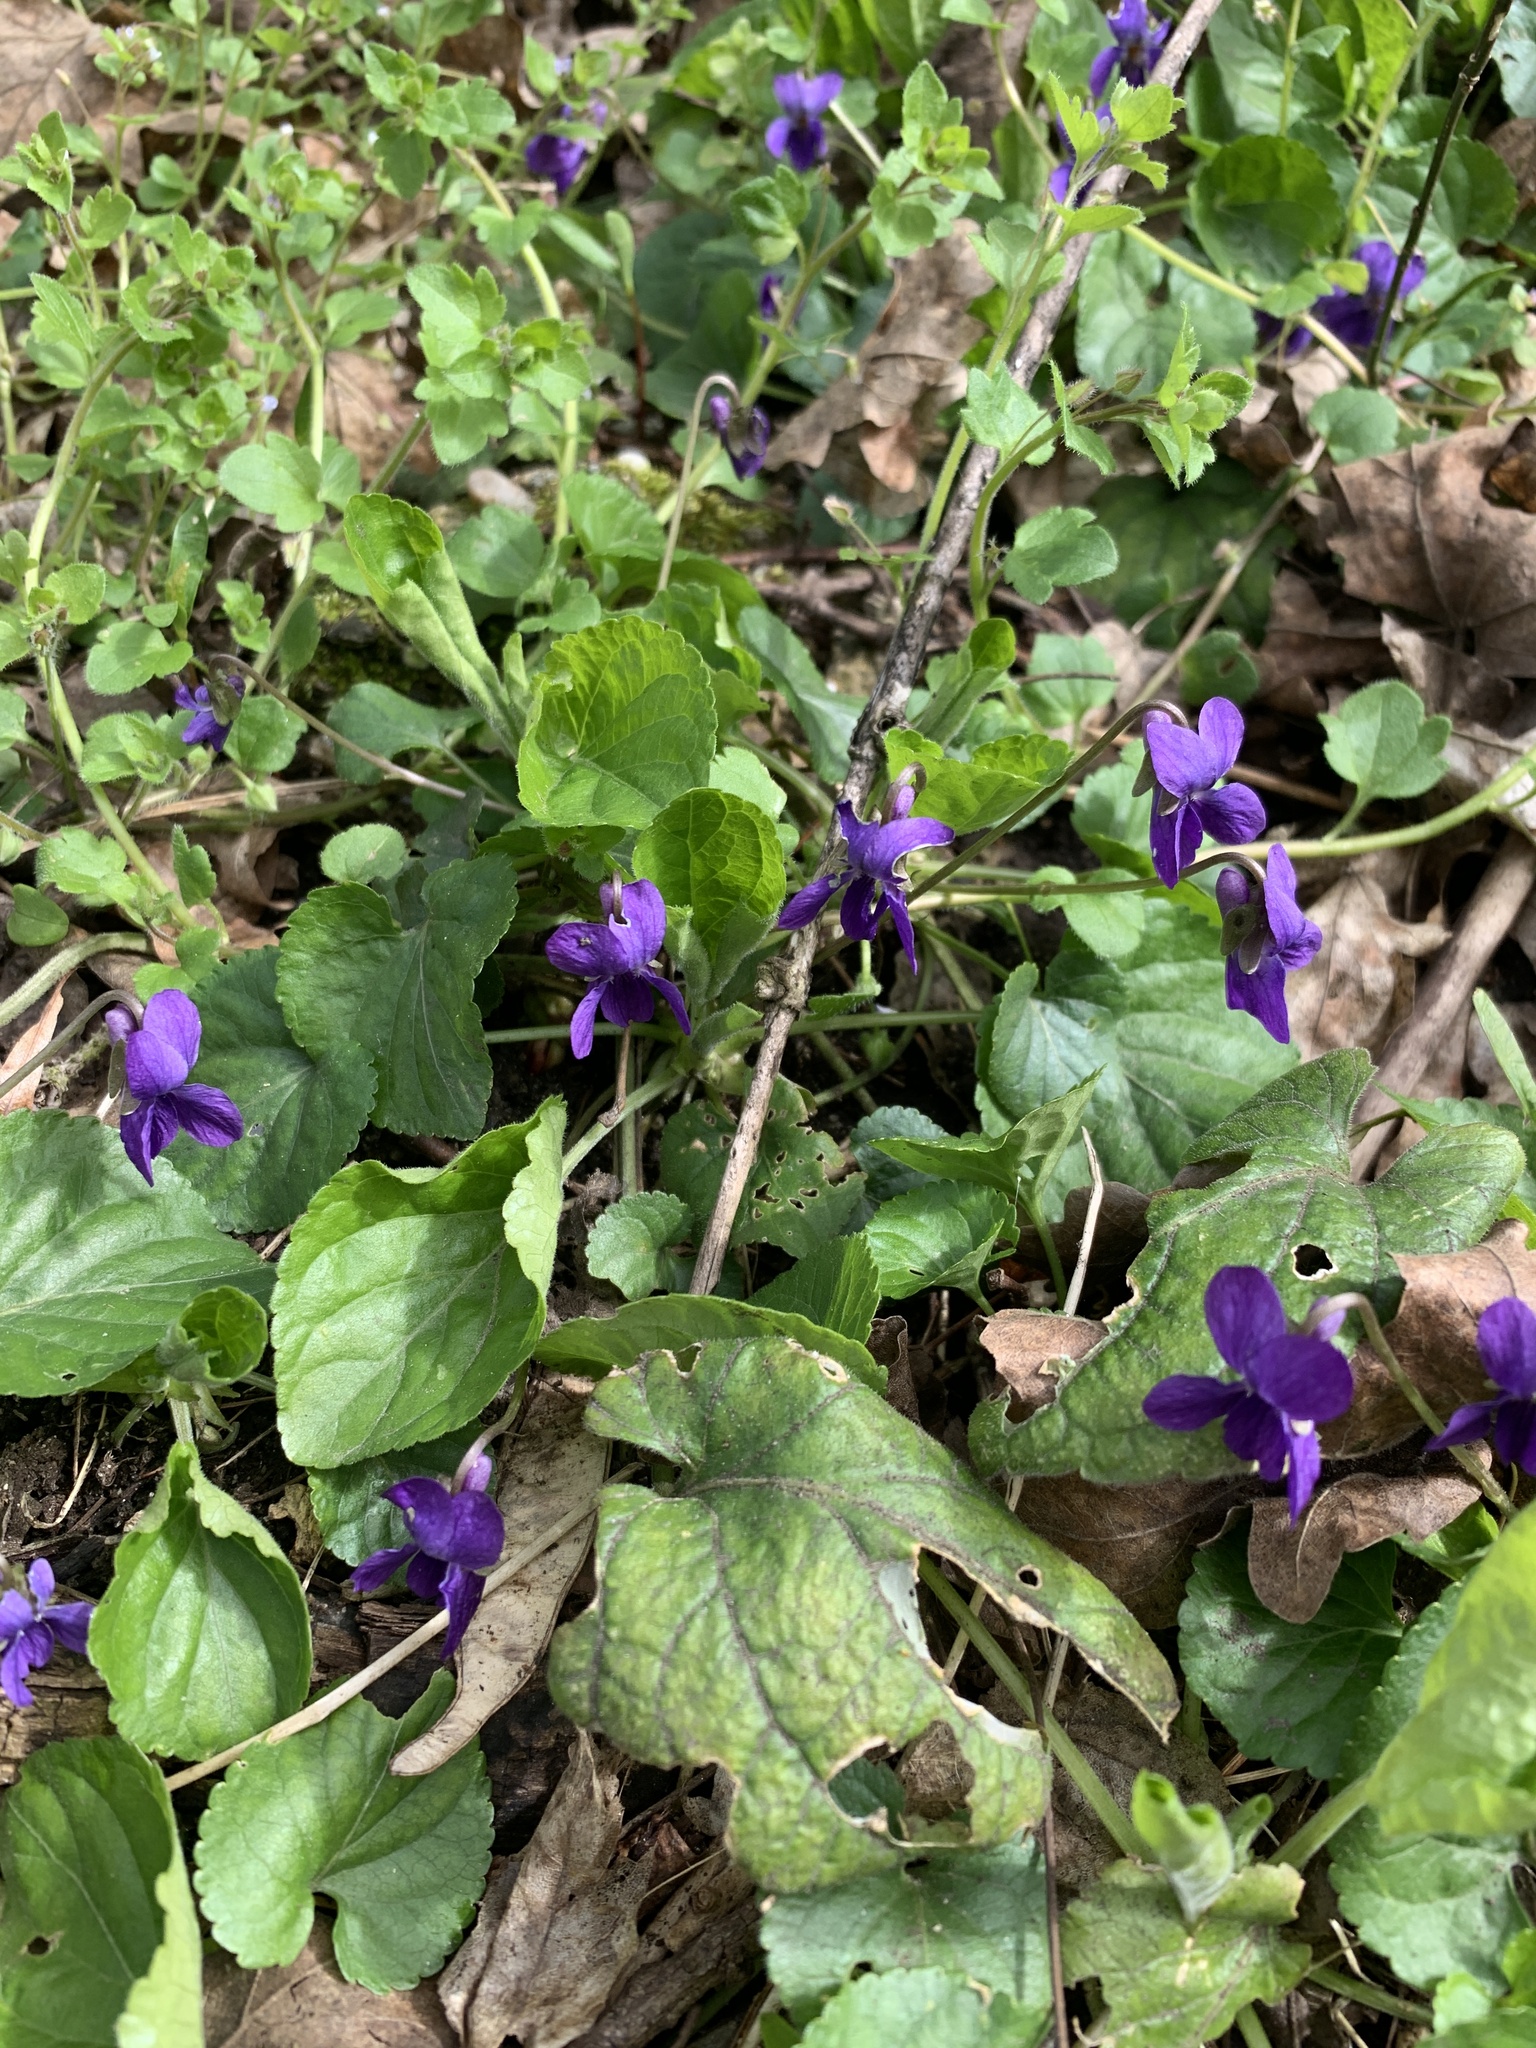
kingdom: Plantae
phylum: Tracheophyta
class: Magnoliopsida
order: Malpighiales
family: Violaceae
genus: Viola
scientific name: Viola odorata
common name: Sweet violet
